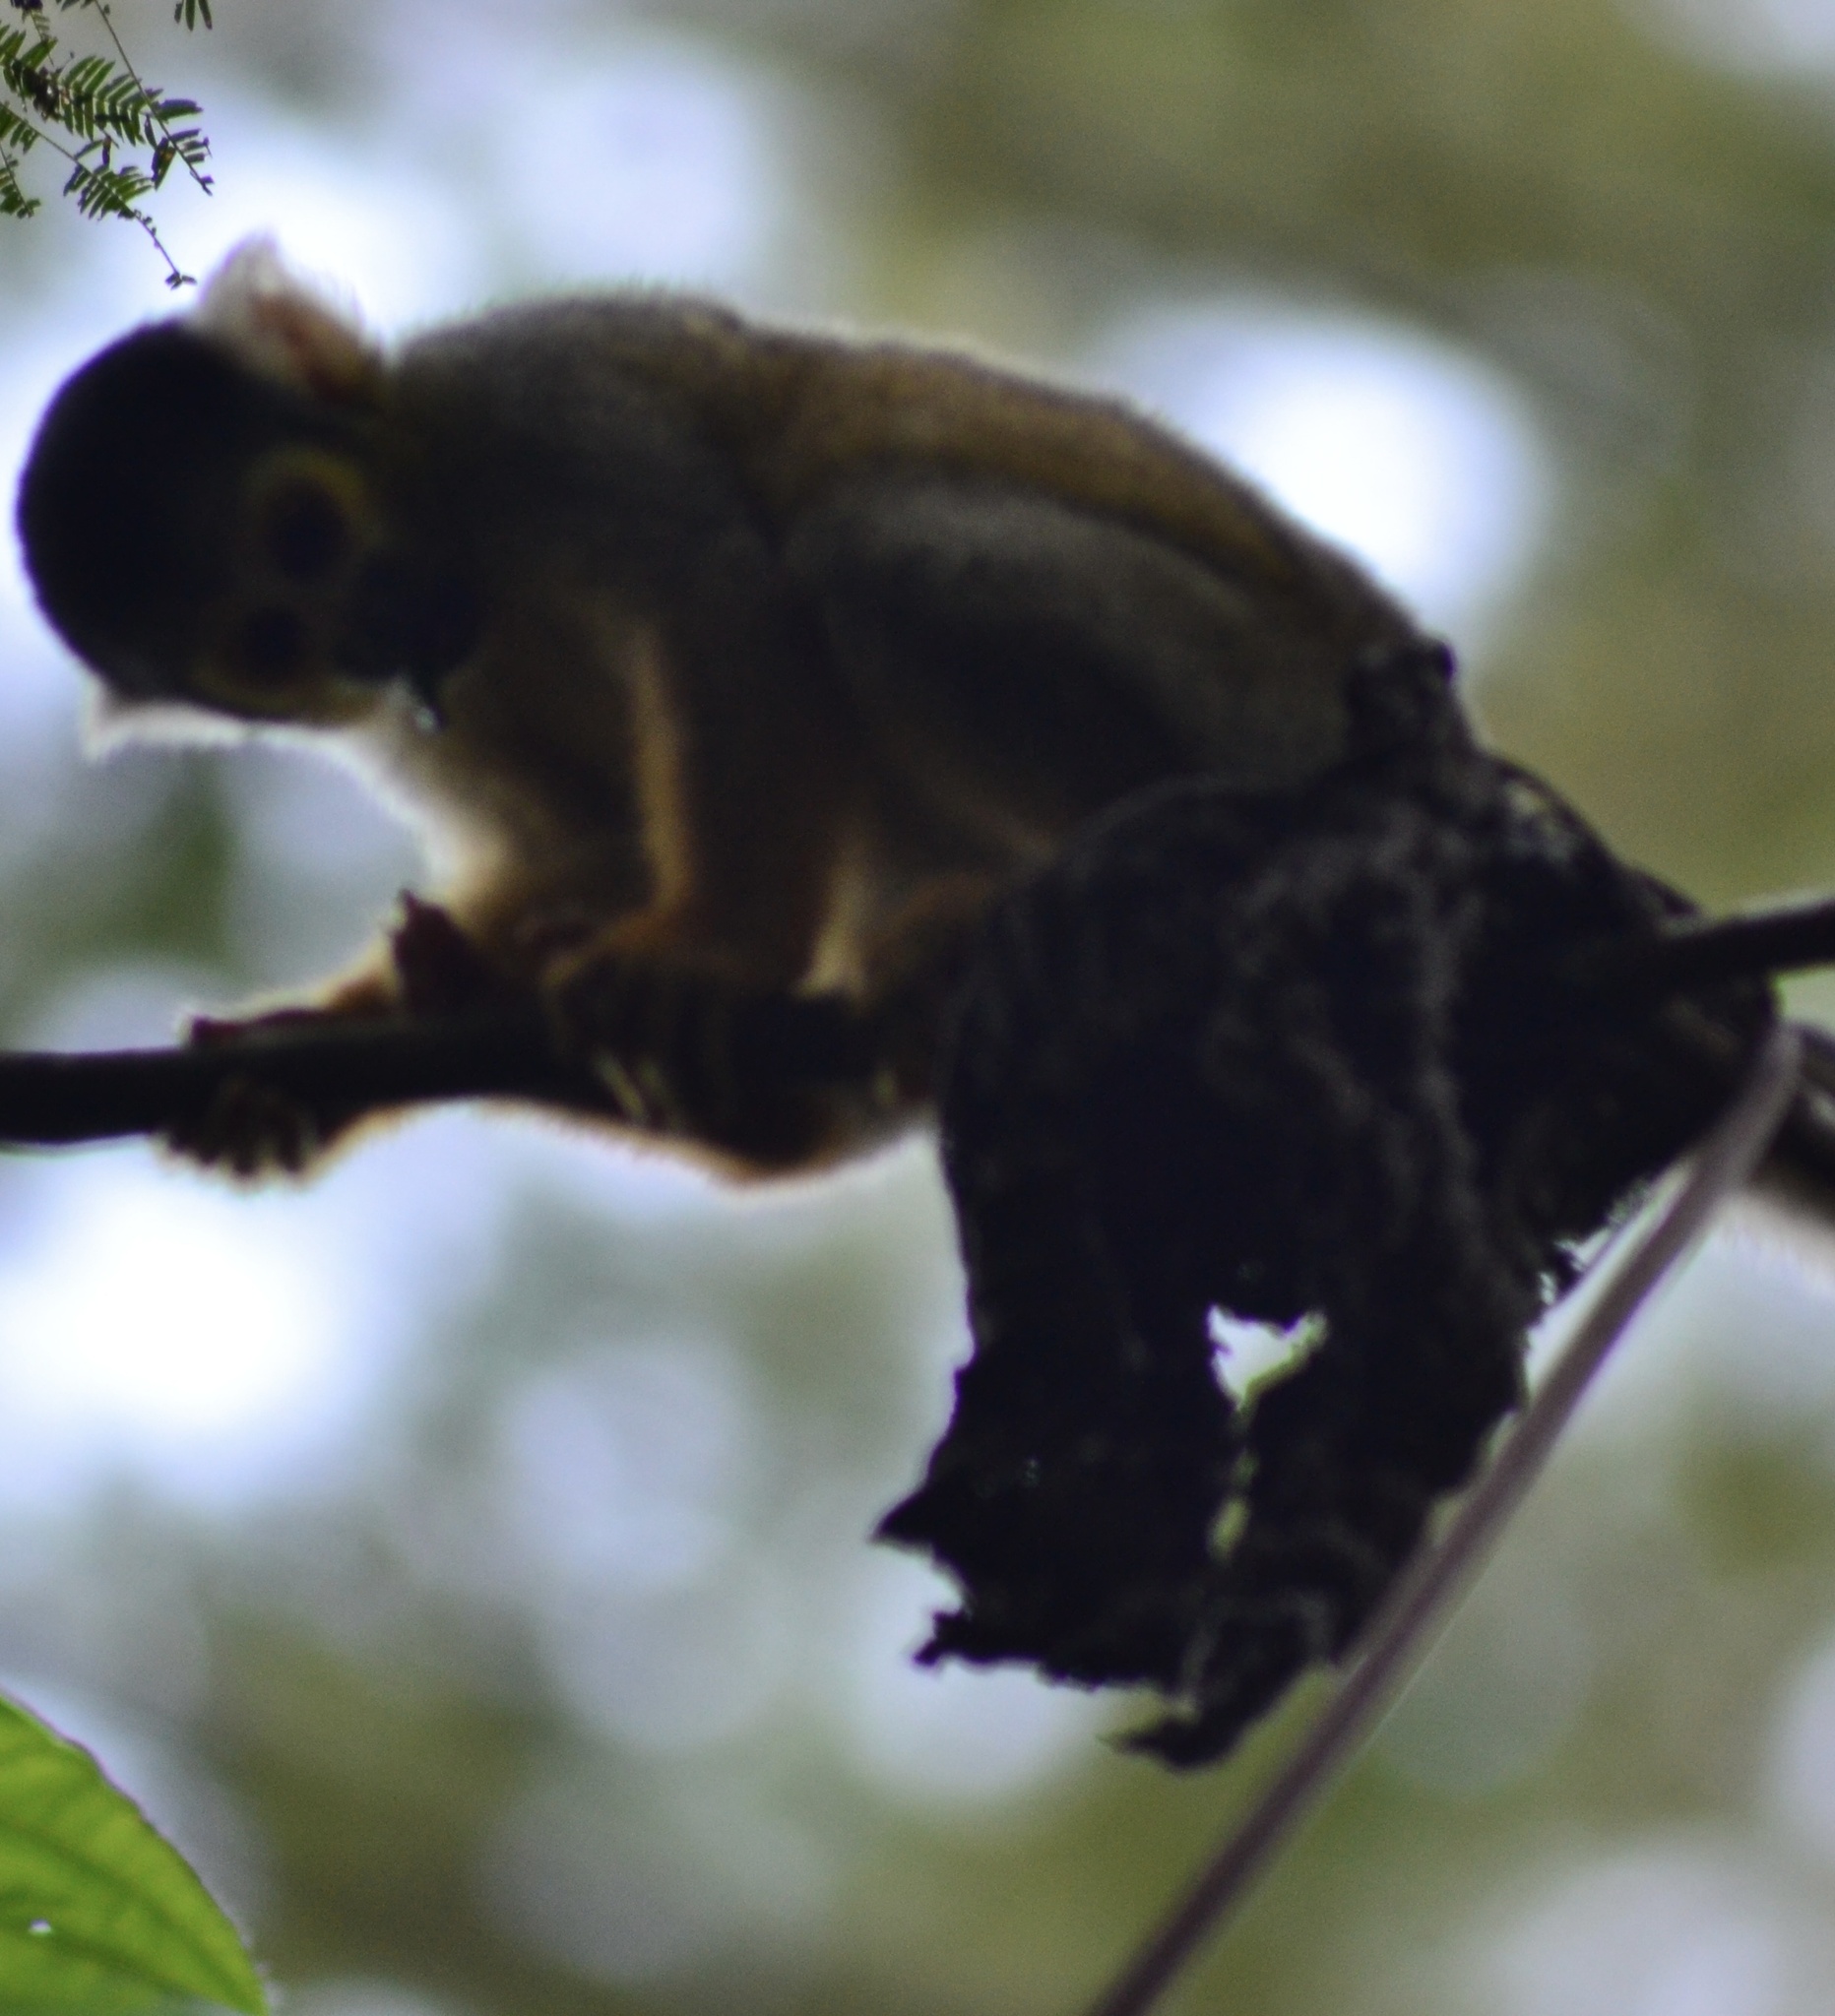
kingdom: Animalia
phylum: Chordata
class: Mammalia
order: Primates
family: Cebidae
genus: Saimiri
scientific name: Saimiri boliviensis
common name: Black-capped squirrel monkey
